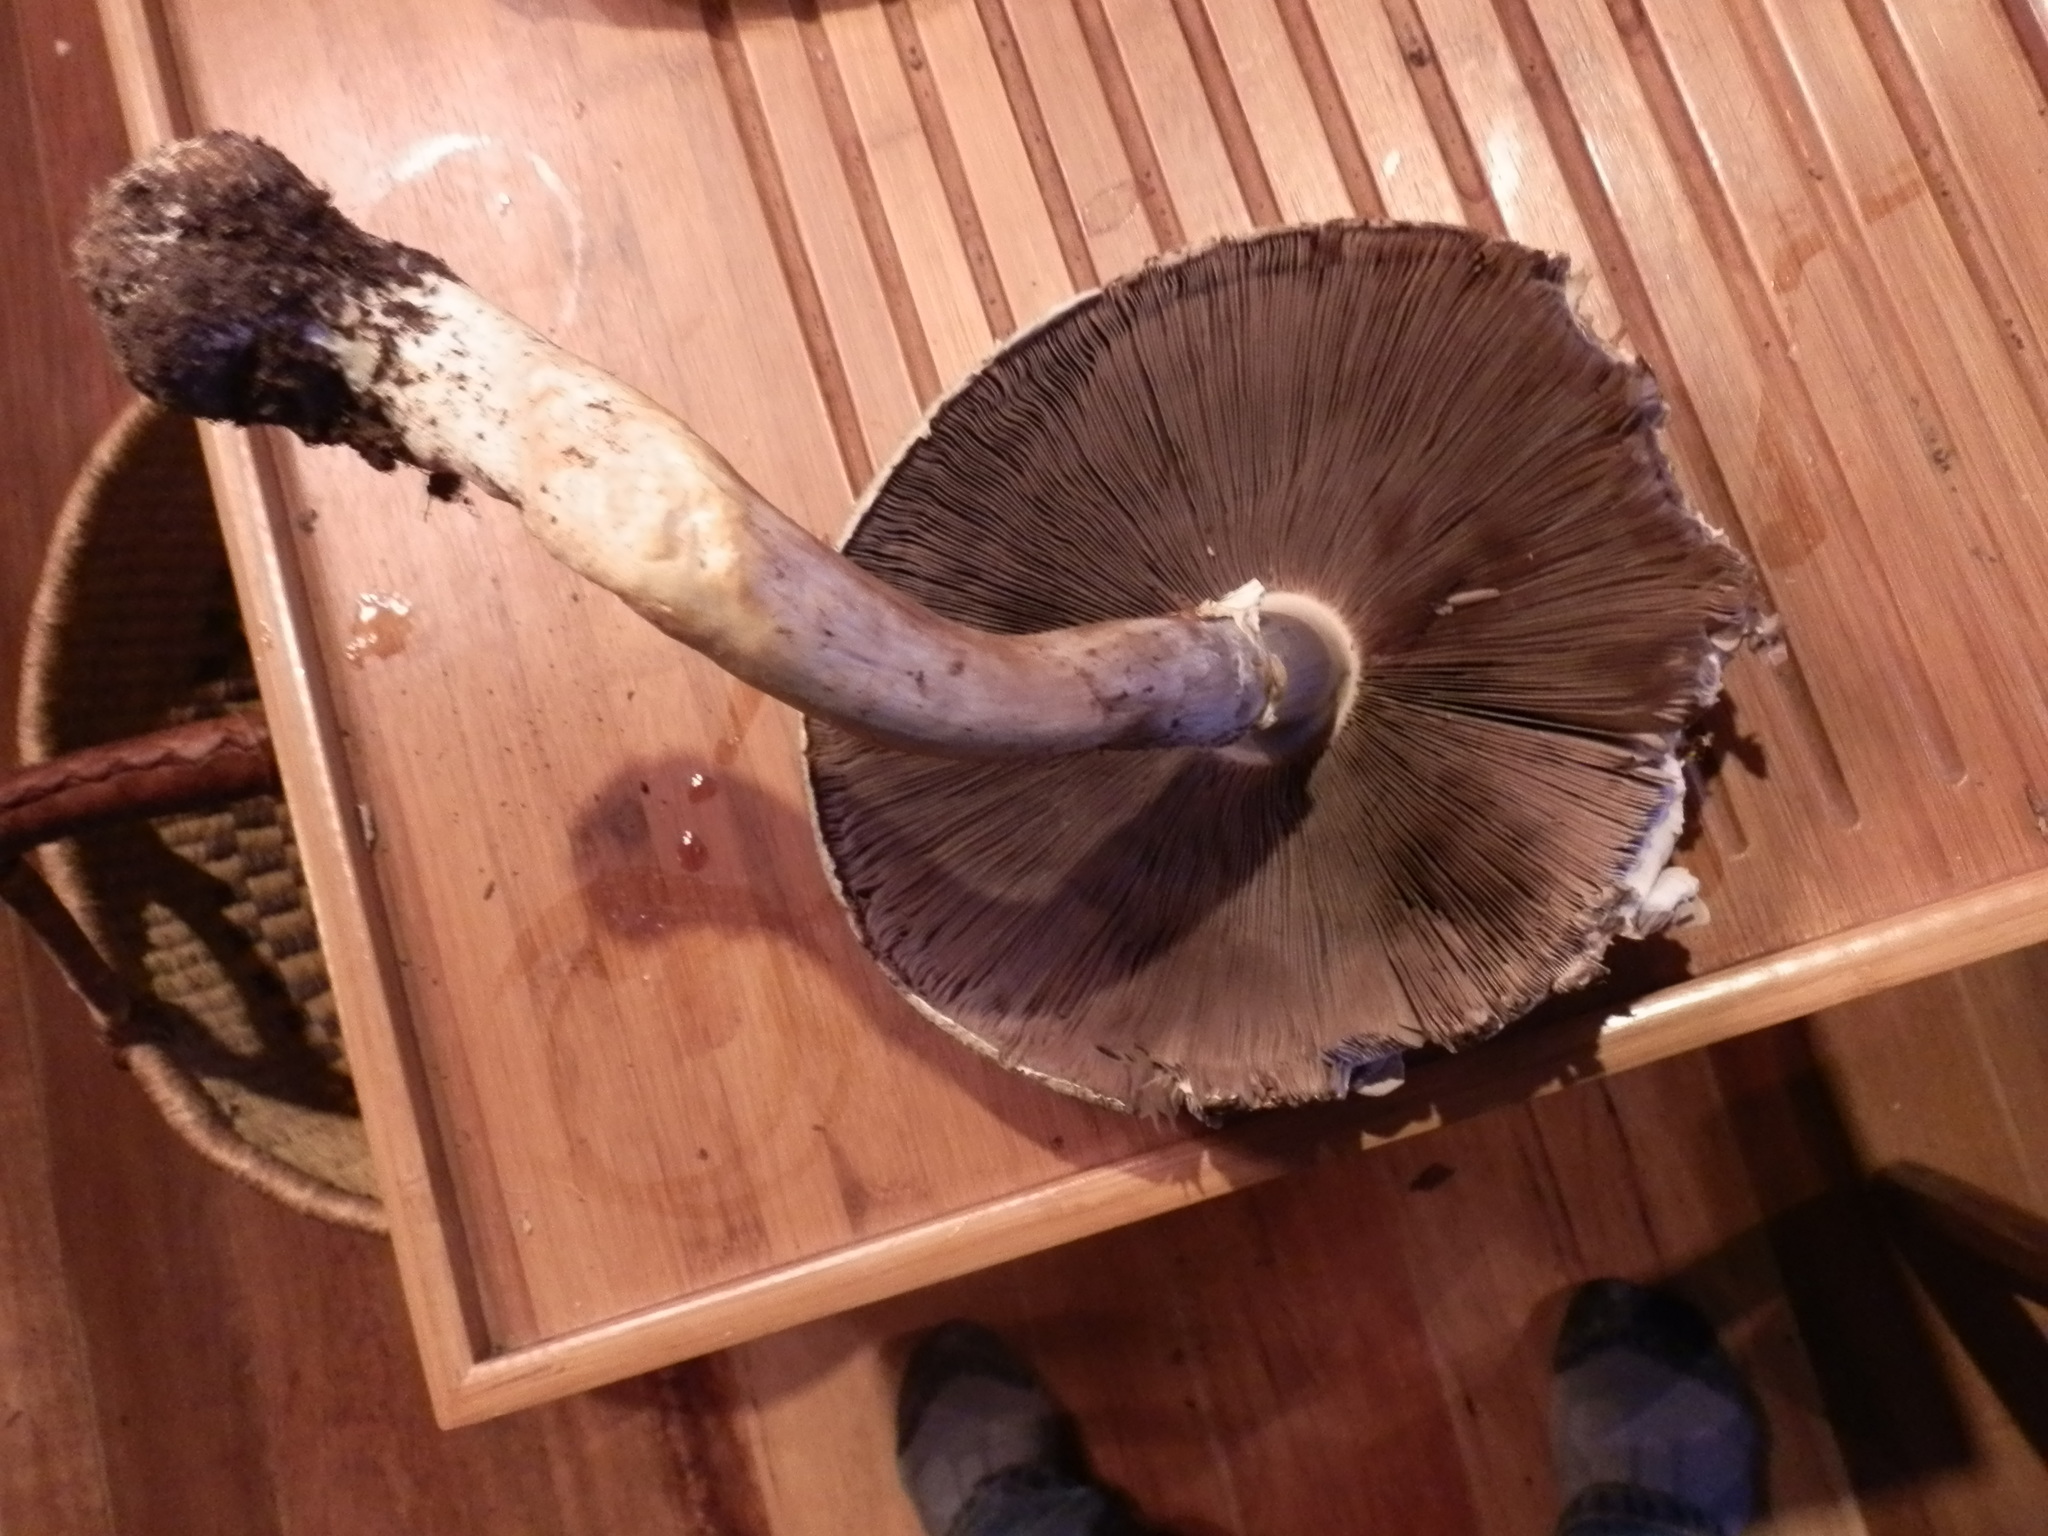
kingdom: Fungi
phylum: Basidiomycota
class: Agaricomycetes
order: Agaricales
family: Agaricaceae
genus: Agaricus
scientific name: Agaricus augustus
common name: Prince
